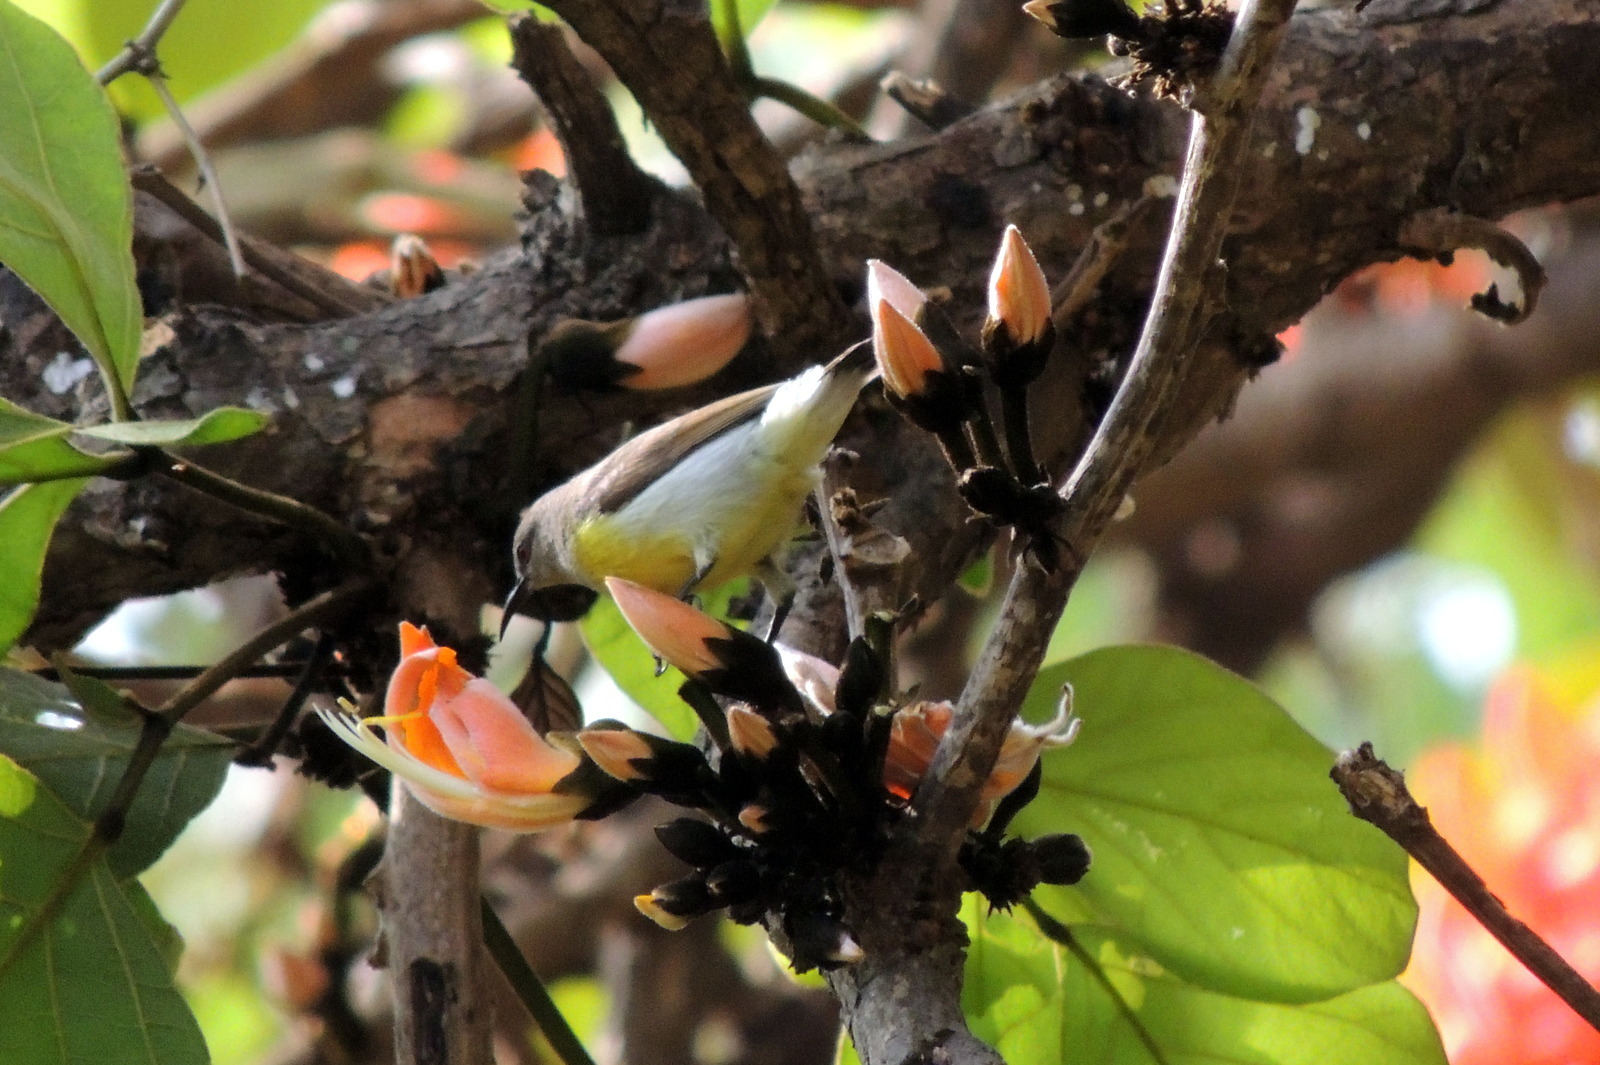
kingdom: Animalia
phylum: Chordata
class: Aves
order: Passeriformes
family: Nectariniidae
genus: Leptocoma
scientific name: Leptocoma zeylonica
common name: Purple-rumped sunbird
